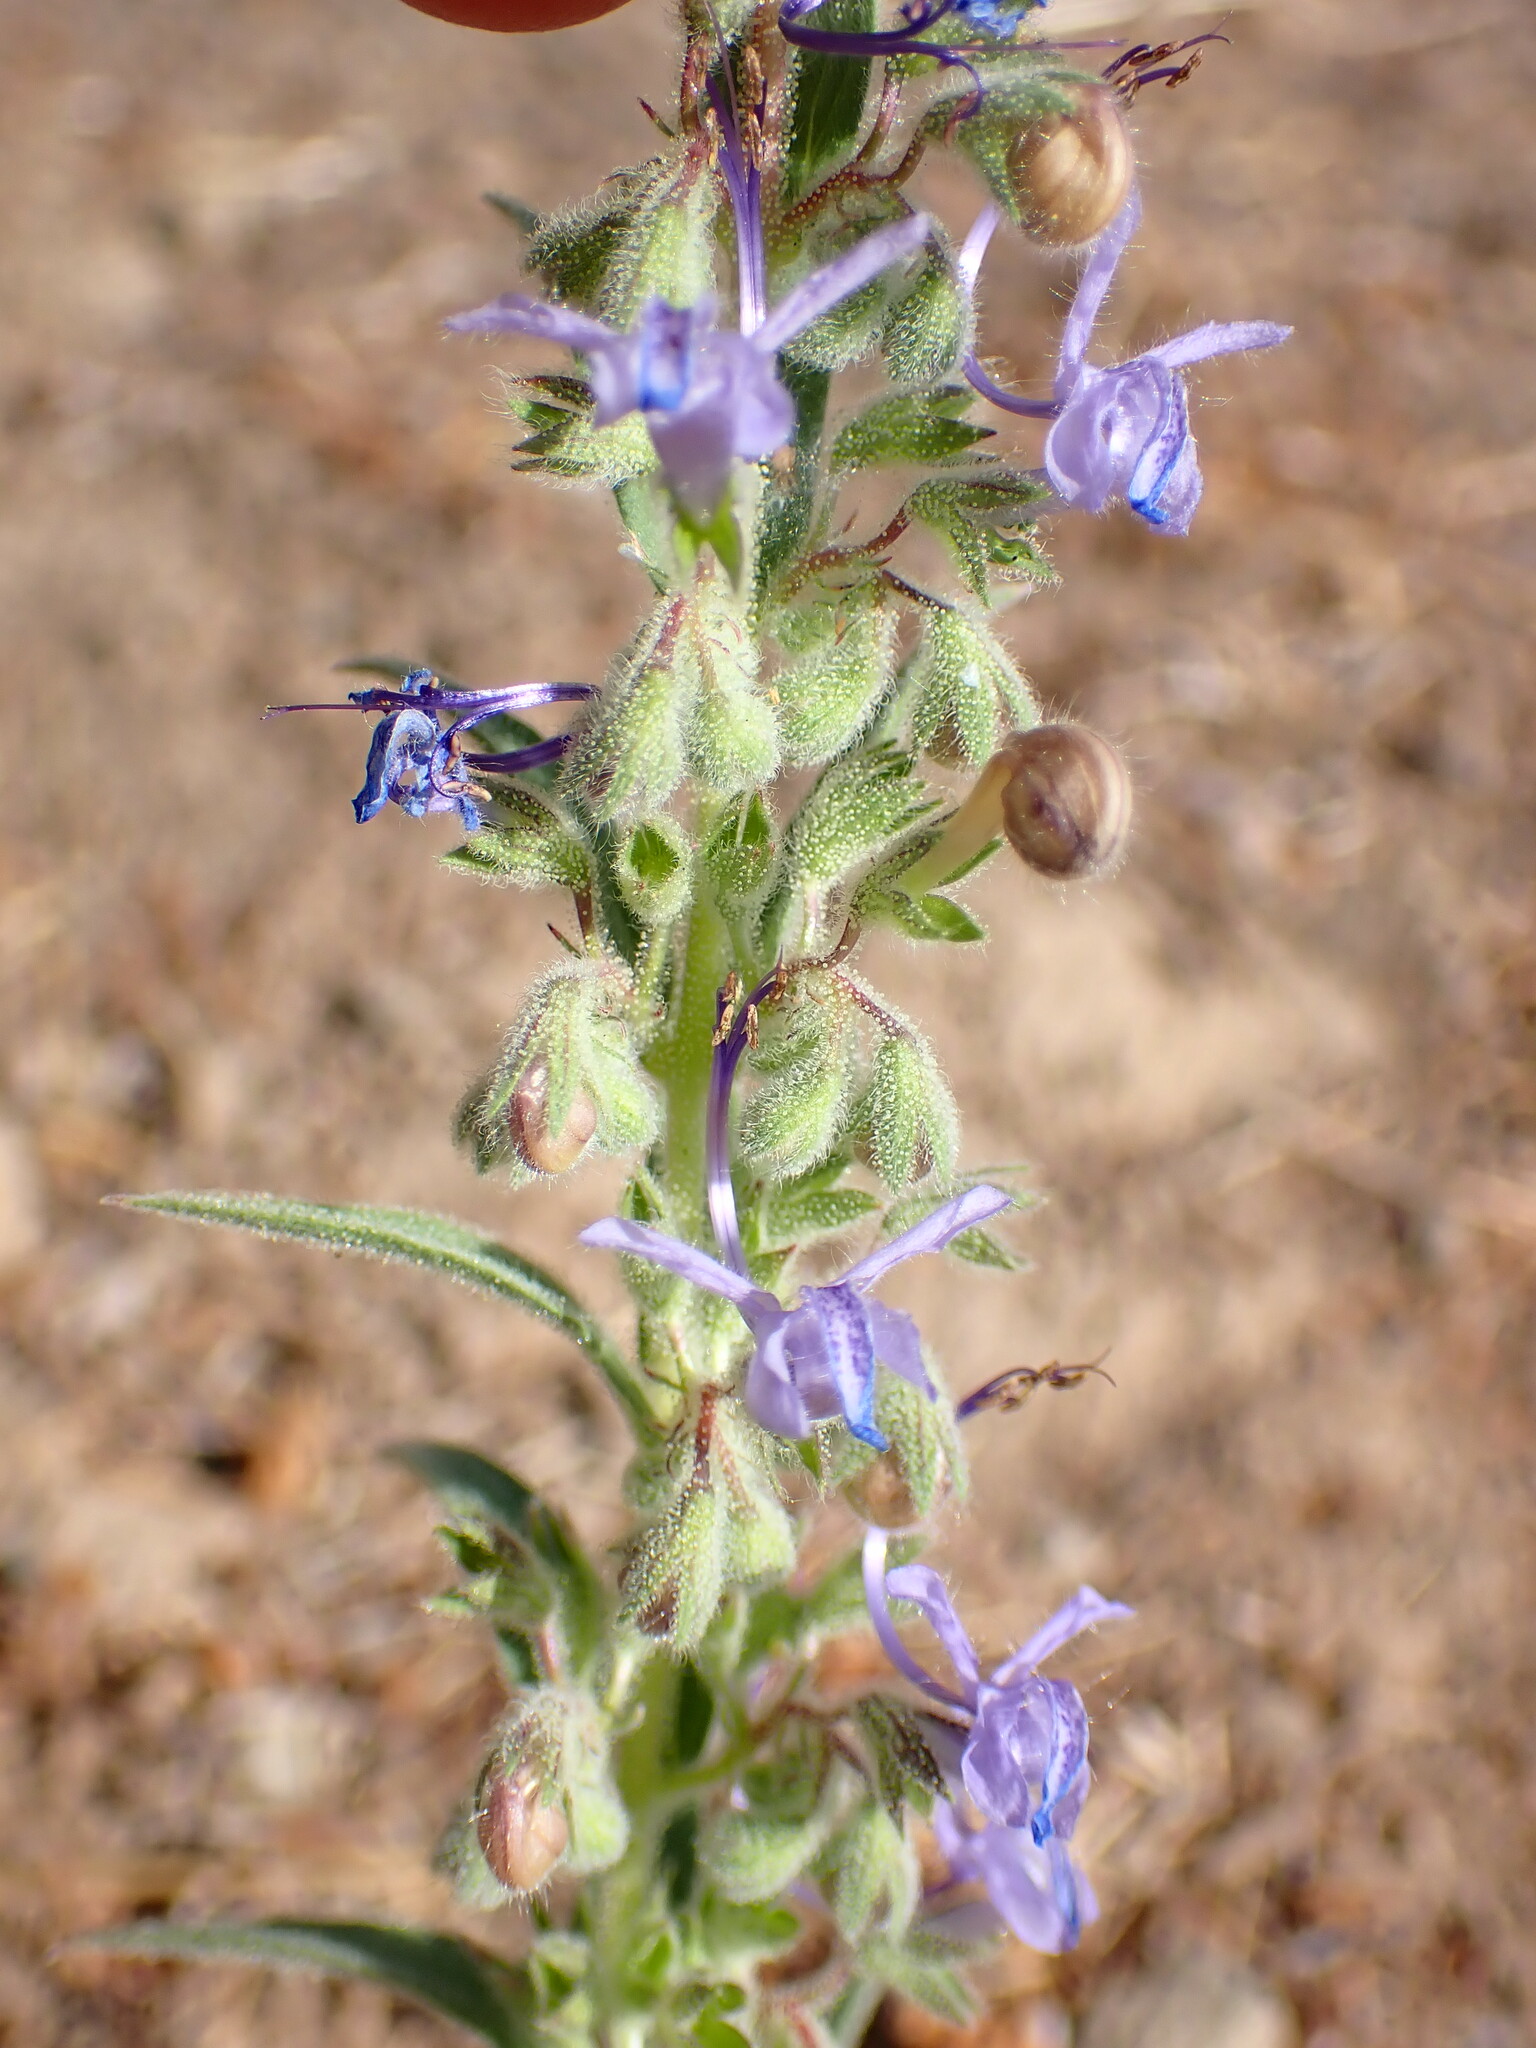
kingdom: Plantae
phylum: Tracheophyta
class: Magnoliopsida
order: Lamiales
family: Lamiaceae
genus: Trichostema
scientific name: Trichostema lanceolatum
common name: Vinegar-weed
